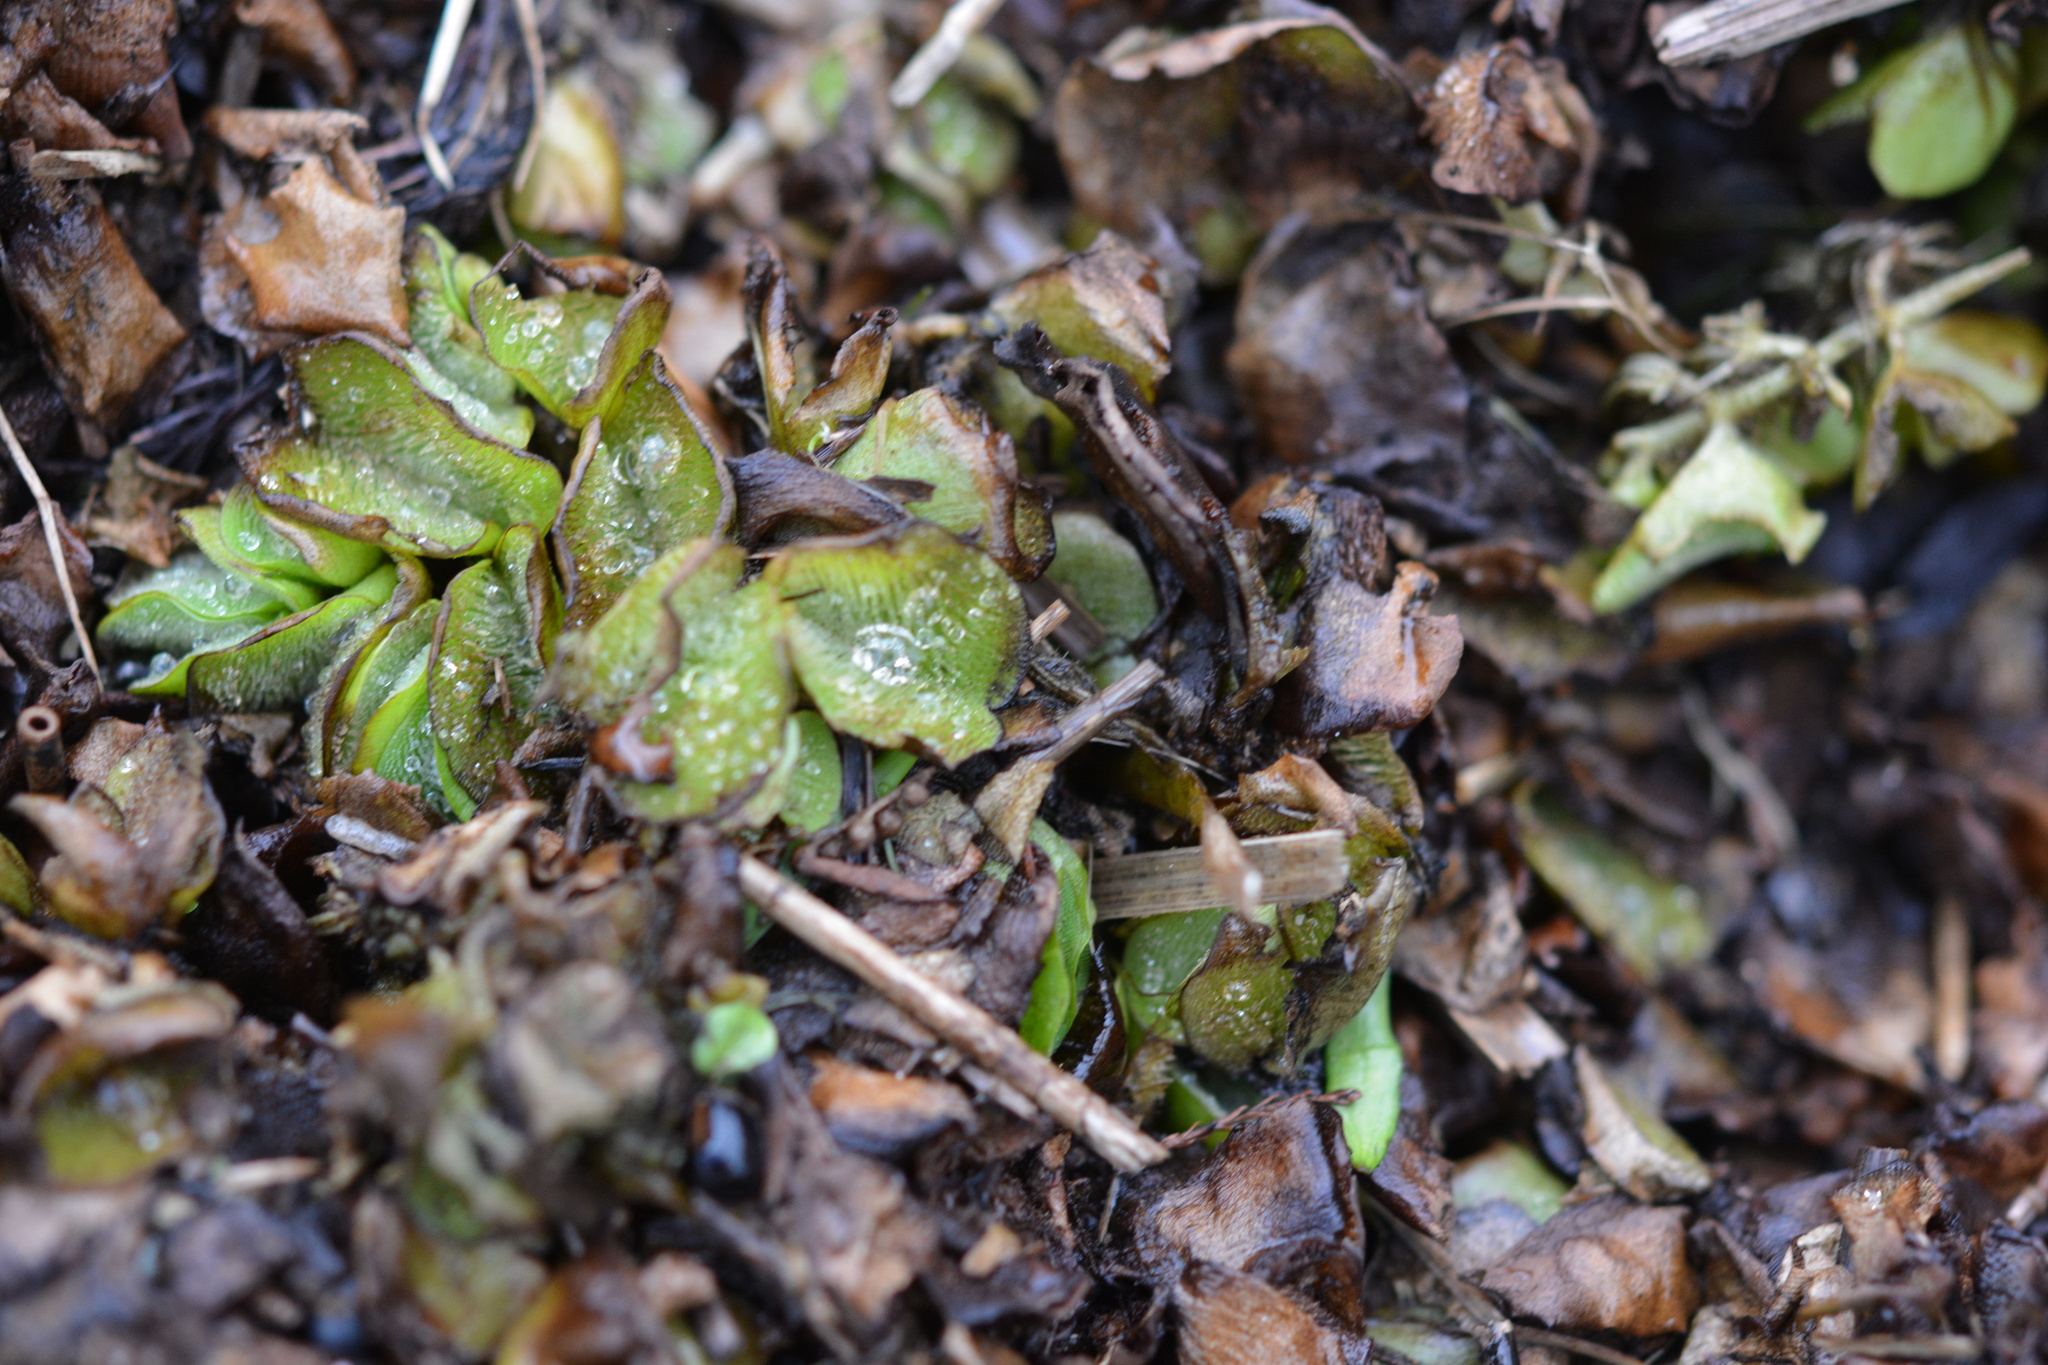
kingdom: Plantae
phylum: Tracheophyta
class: Polypodiopsida
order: Salviniales
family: Salviniaceae
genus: Salvinia
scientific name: Salvinia molesta
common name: Kariba weed
